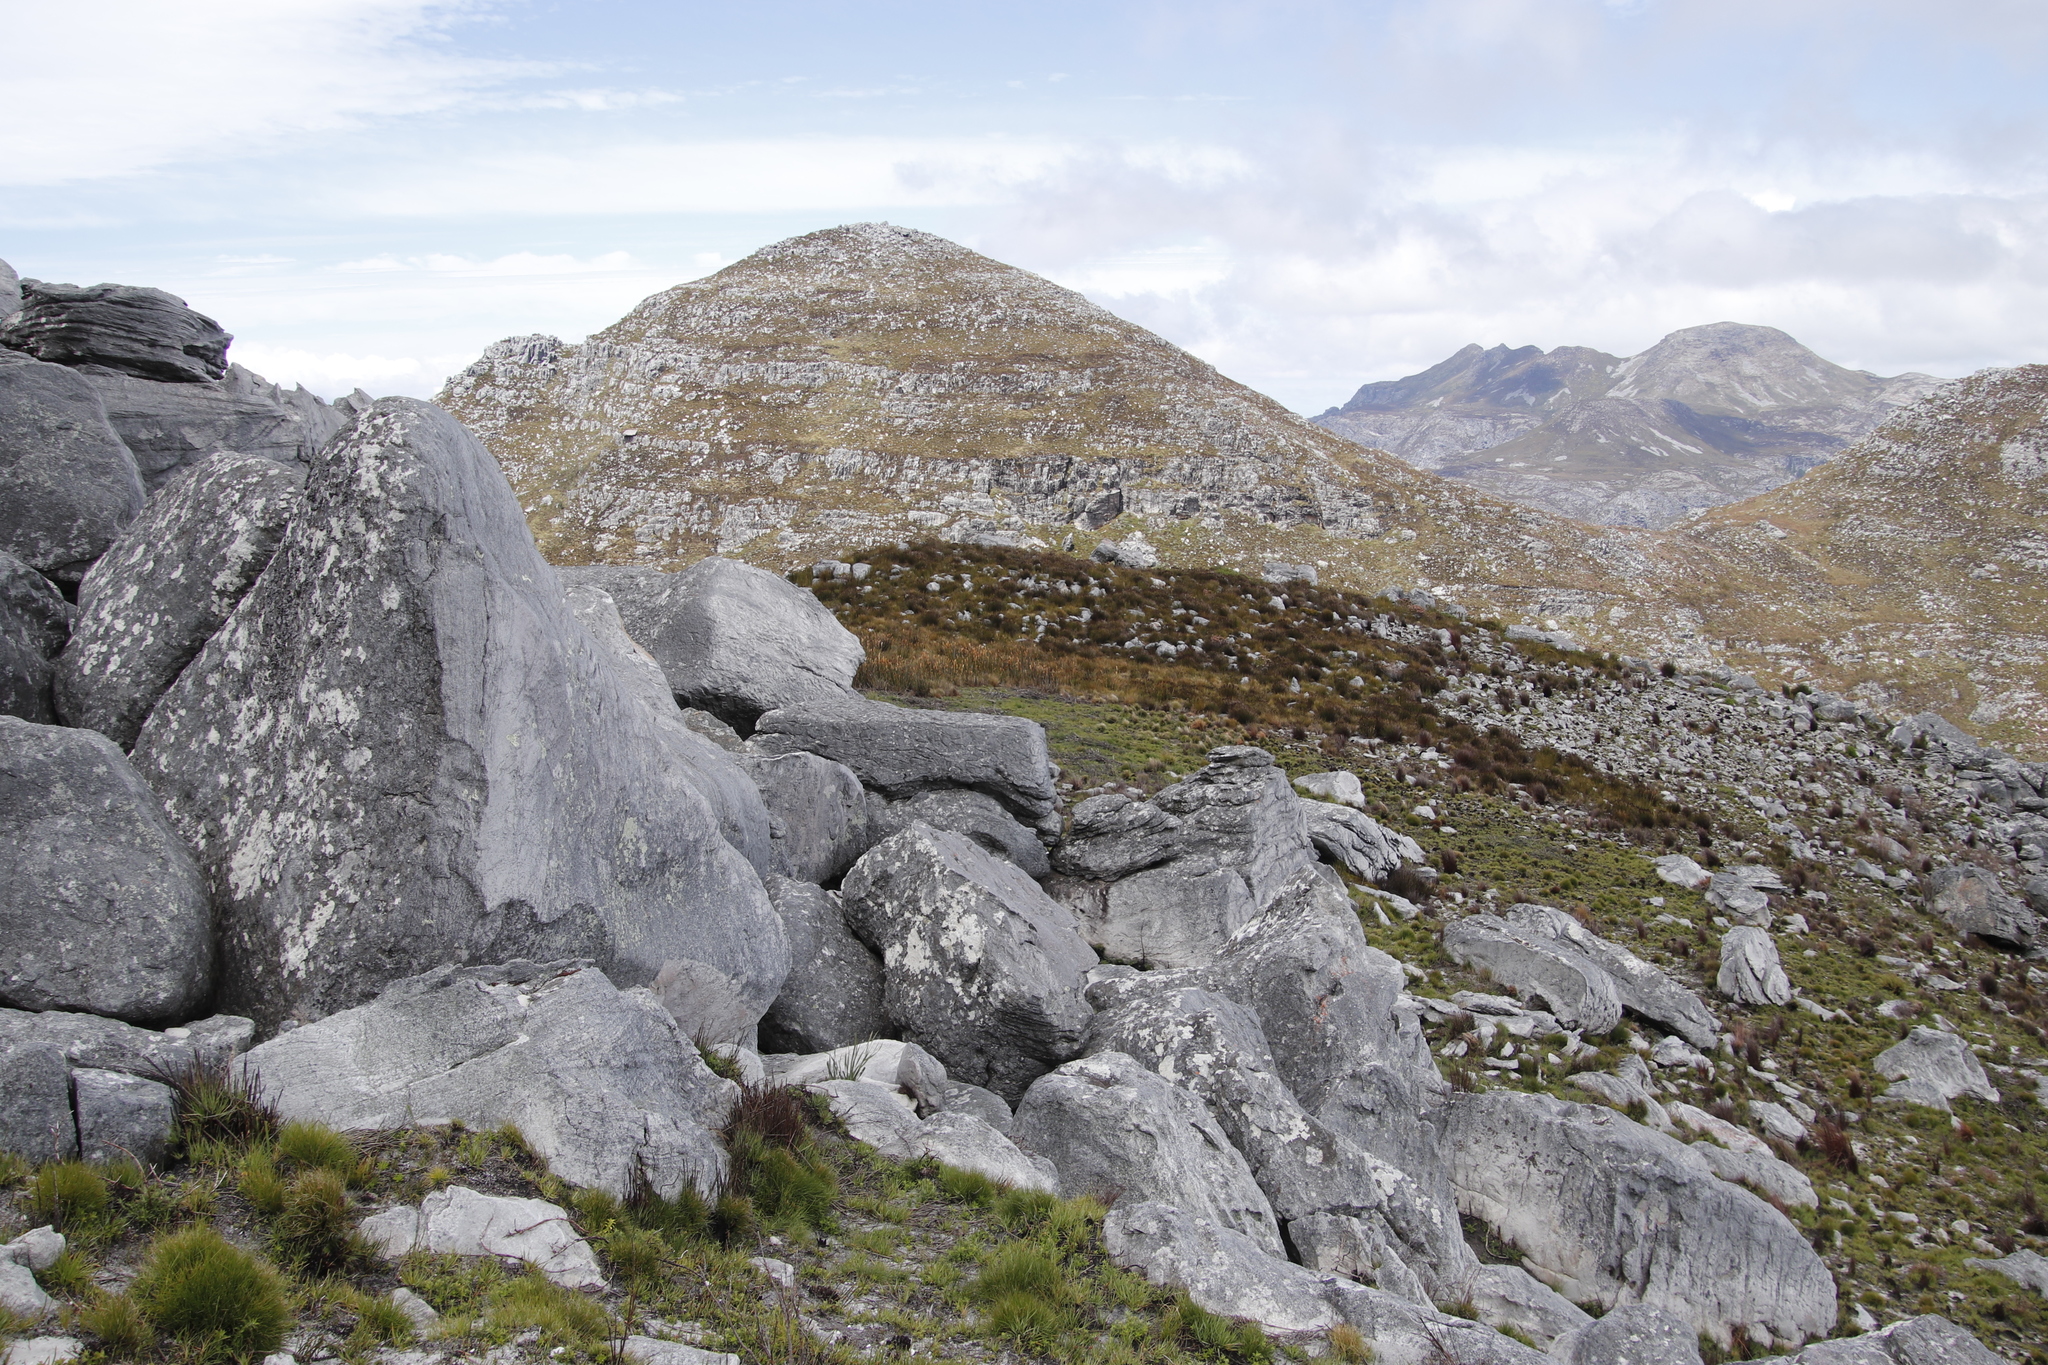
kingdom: Plantae
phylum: Tracheophyta
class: Liliopsida
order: Poales
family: Restionaceae
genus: Elegia
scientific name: Elegia mucronata
